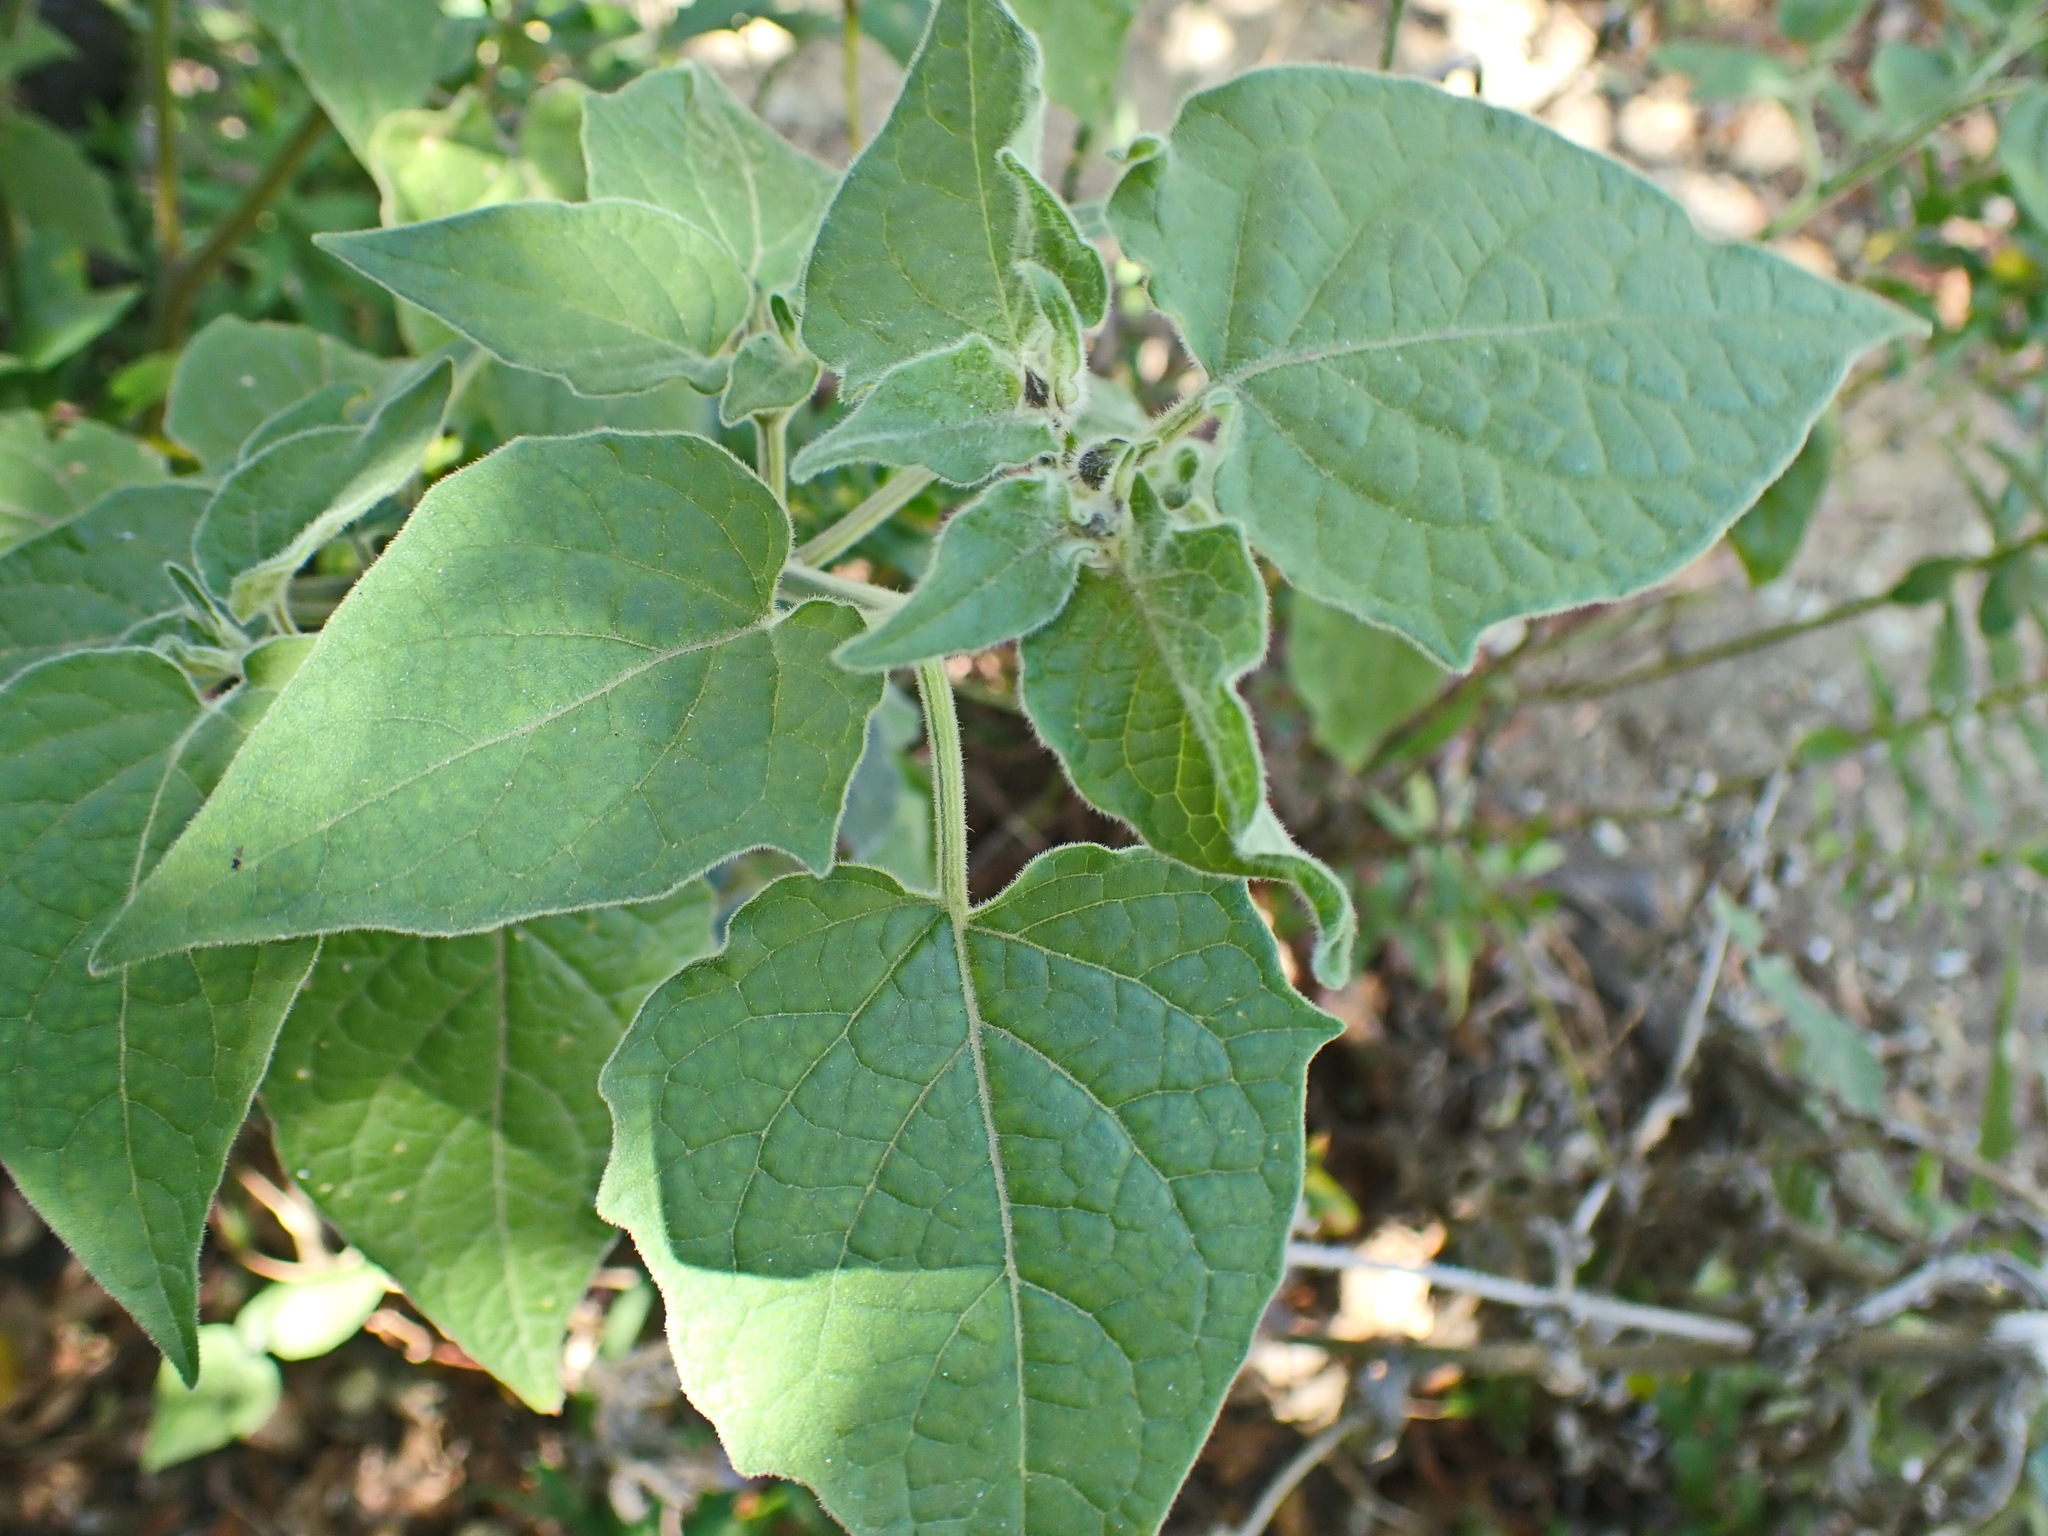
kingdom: Plantae
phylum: Tracheophyta
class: Magnoliopsida
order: Solanales
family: Solanaceae
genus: Physalis
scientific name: Physalis peruviana
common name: Cape-gooseberry
